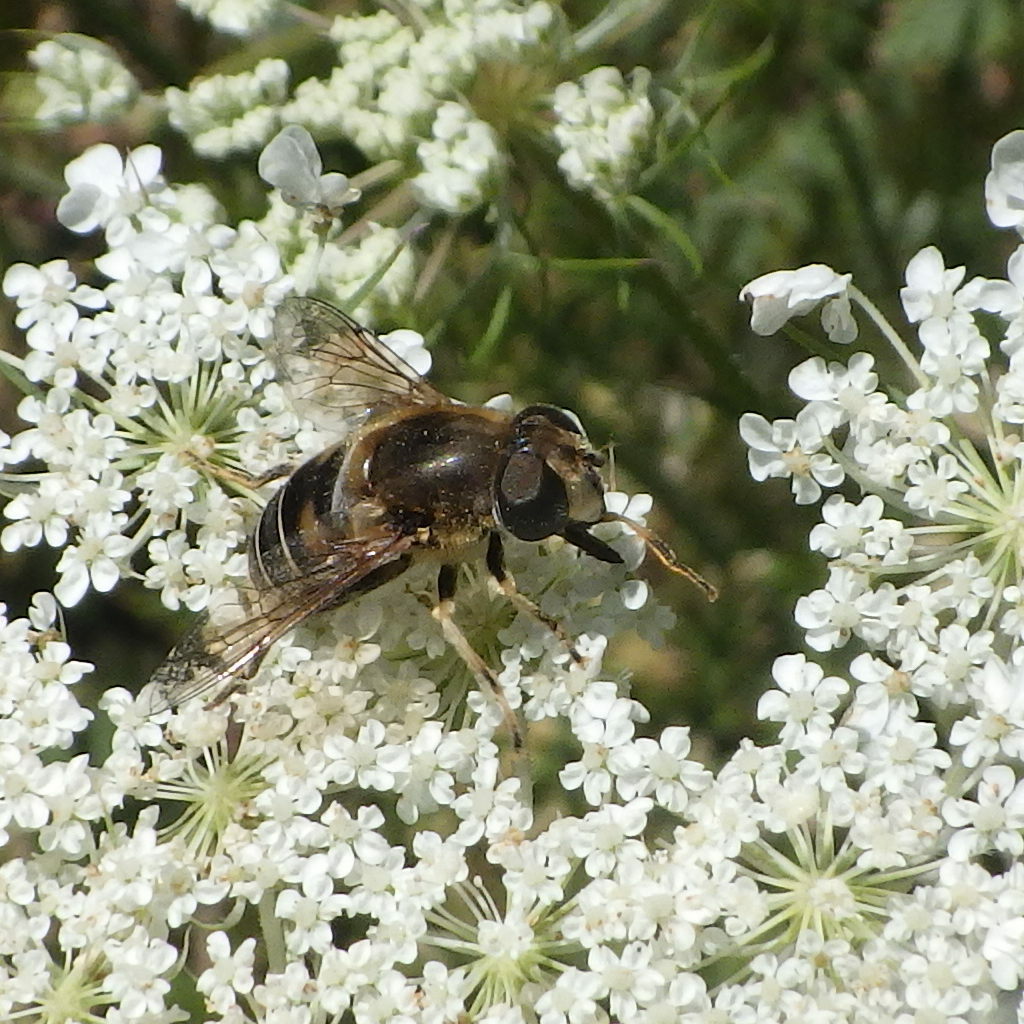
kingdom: Animalia
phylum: Arthropoda
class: Insecta
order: Diptera
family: Syrphidae
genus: Eristalis
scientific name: Eristalis nemorum
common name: Orange-spined drone fly
